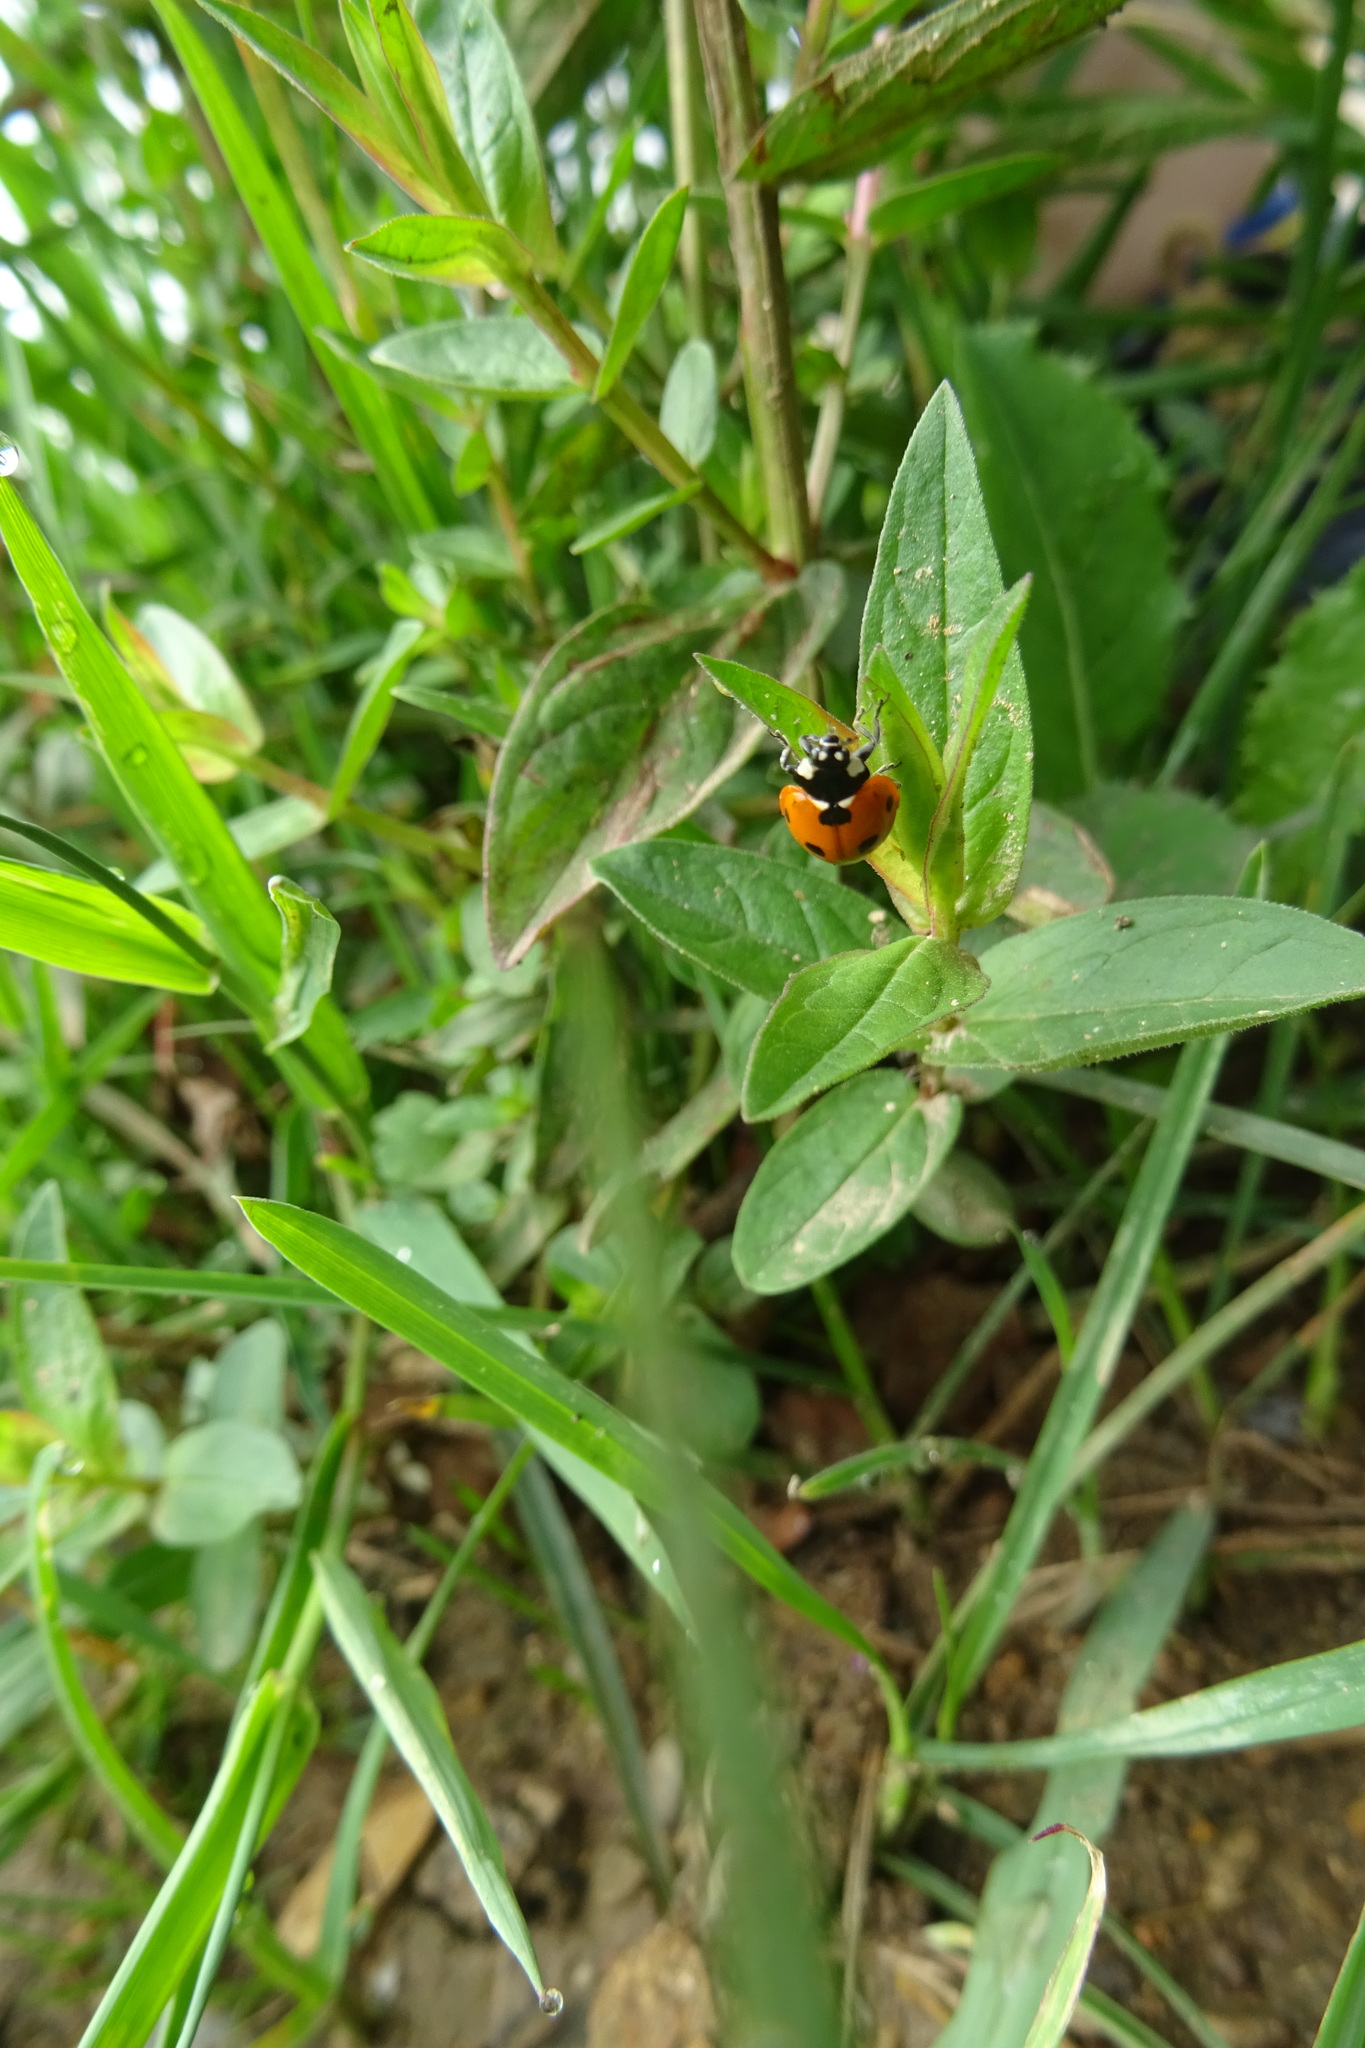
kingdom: Animalia
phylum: Arthropoda
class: Insecta
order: Coleoptera
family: Coccinellidae
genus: Coccinella
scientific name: Coccinella septempunctata
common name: Sevenspotted lady beetle
